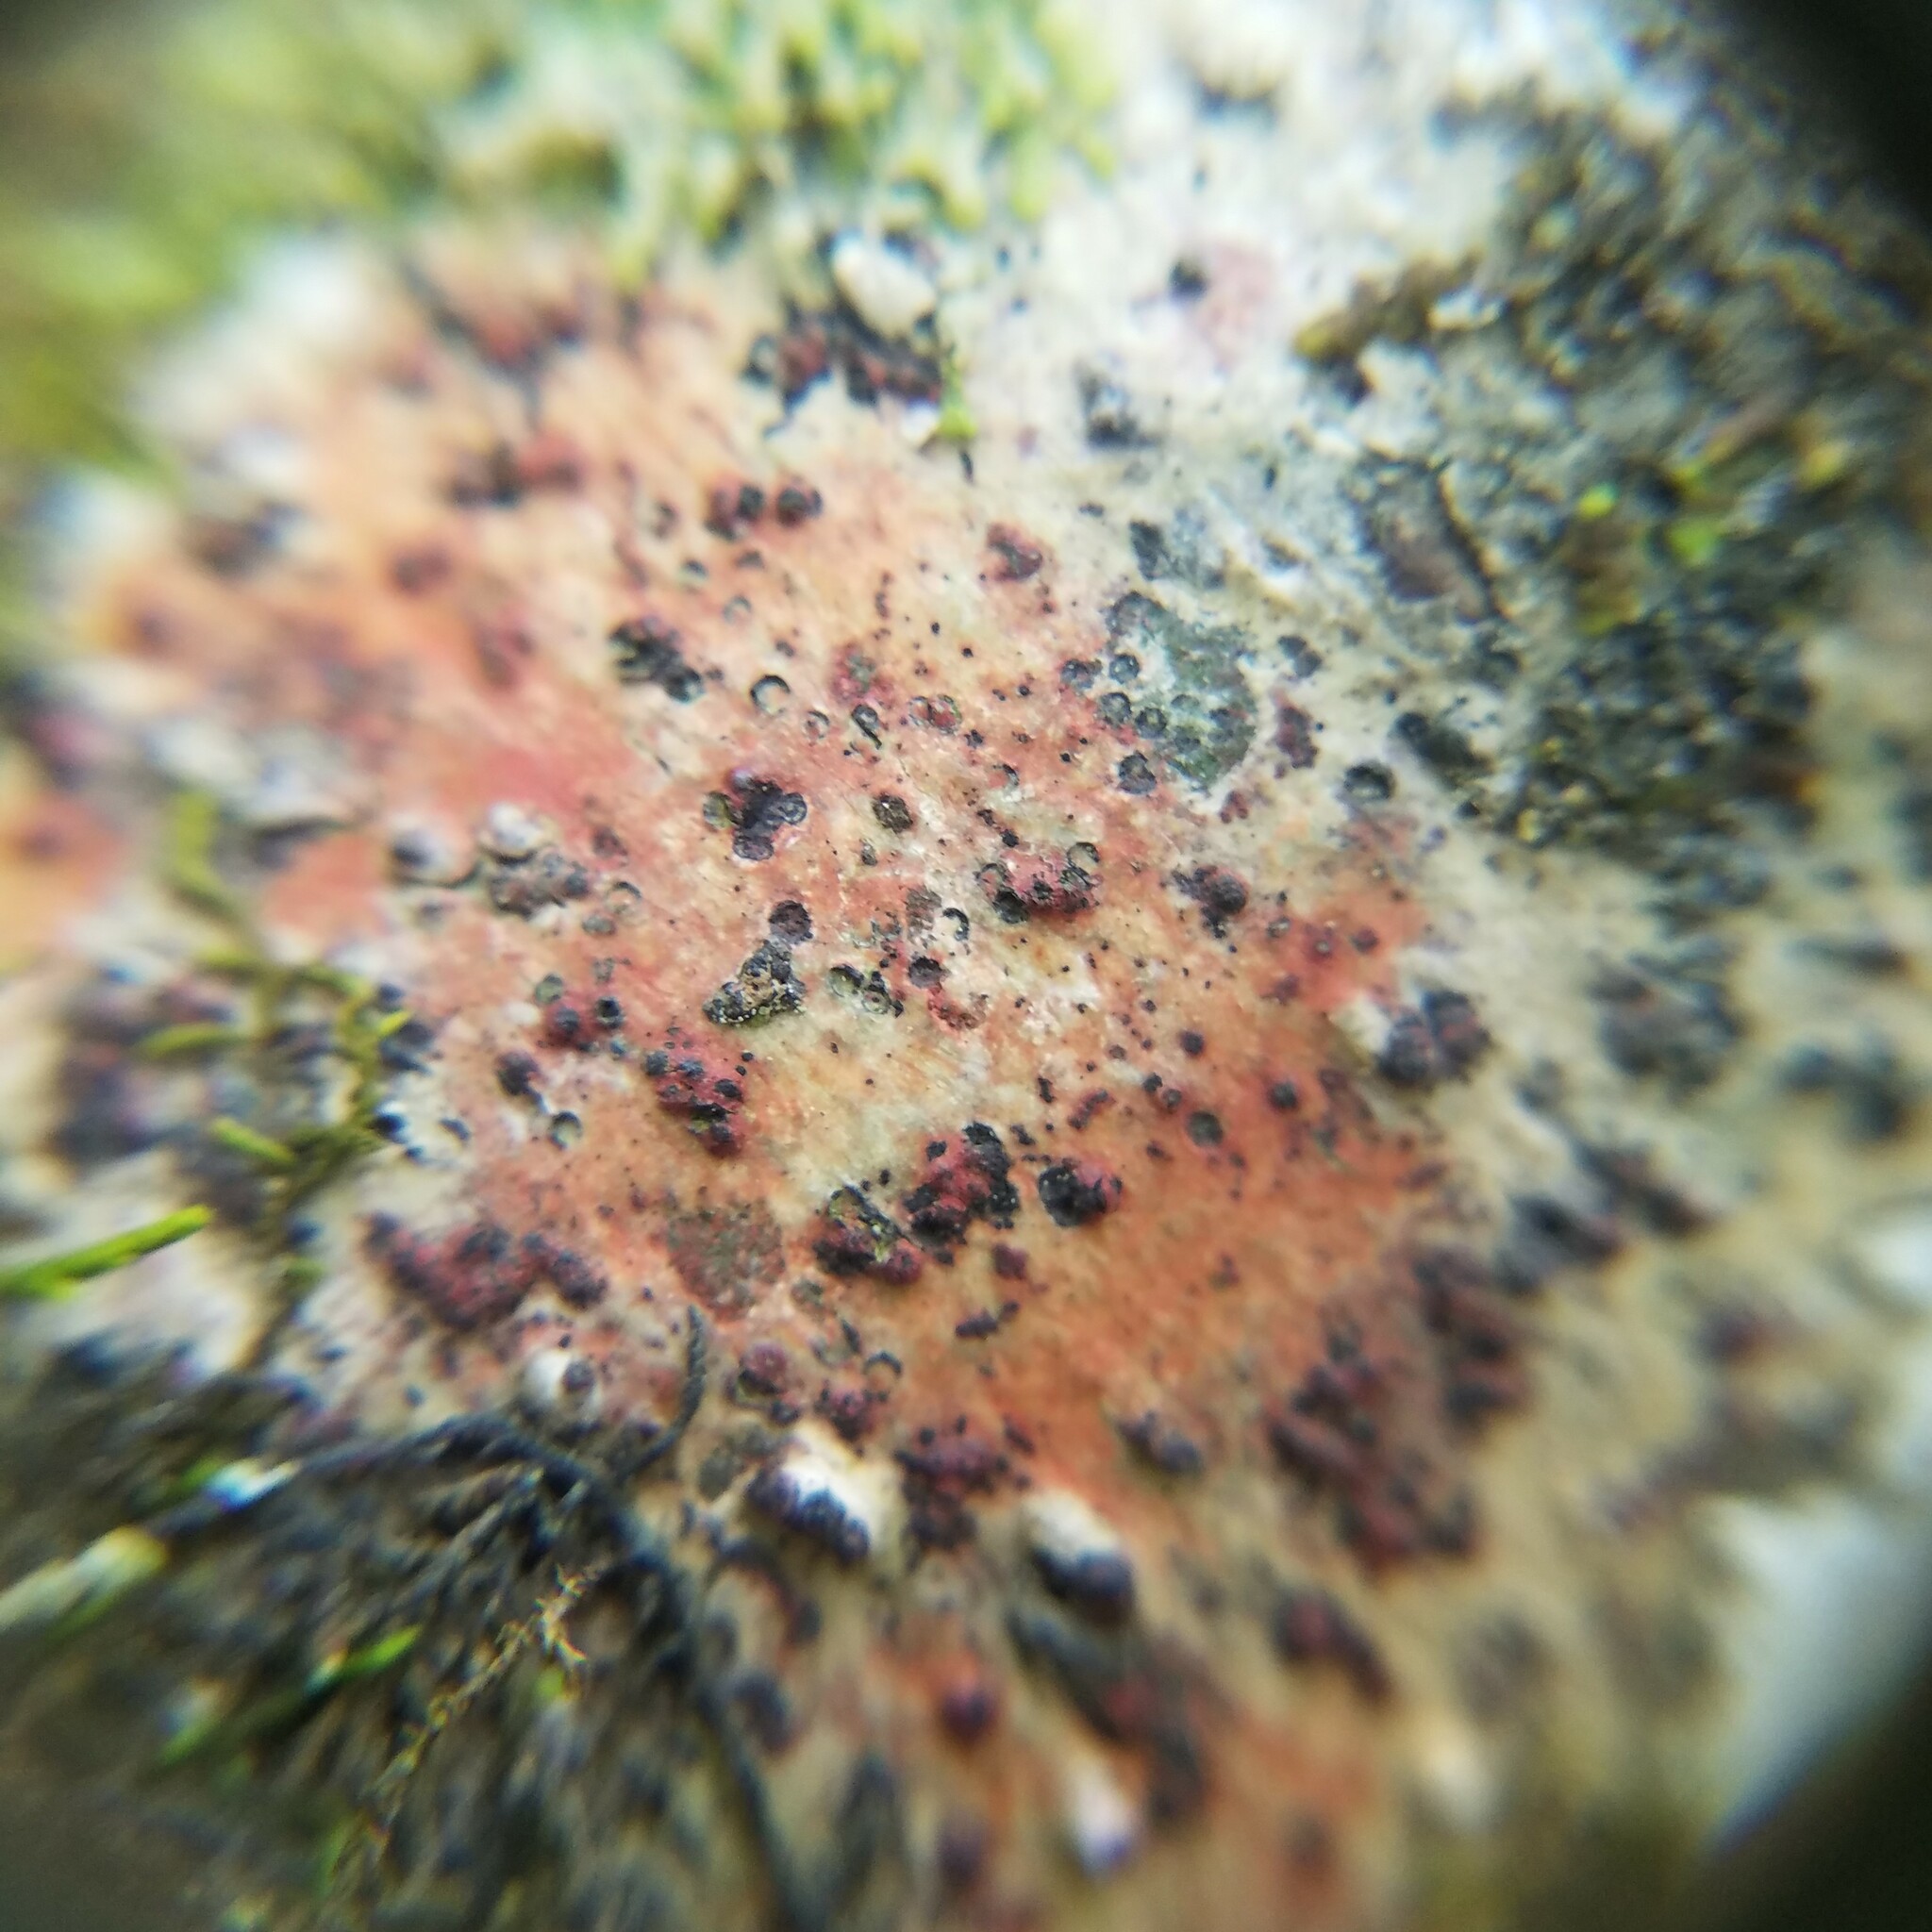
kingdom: Fungi
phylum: Ascomycota
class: Eurotiomycetes
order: Pyrenulales
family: Pyrenulaceae
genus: Pyrenula
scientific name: Pyrenula cruenta
